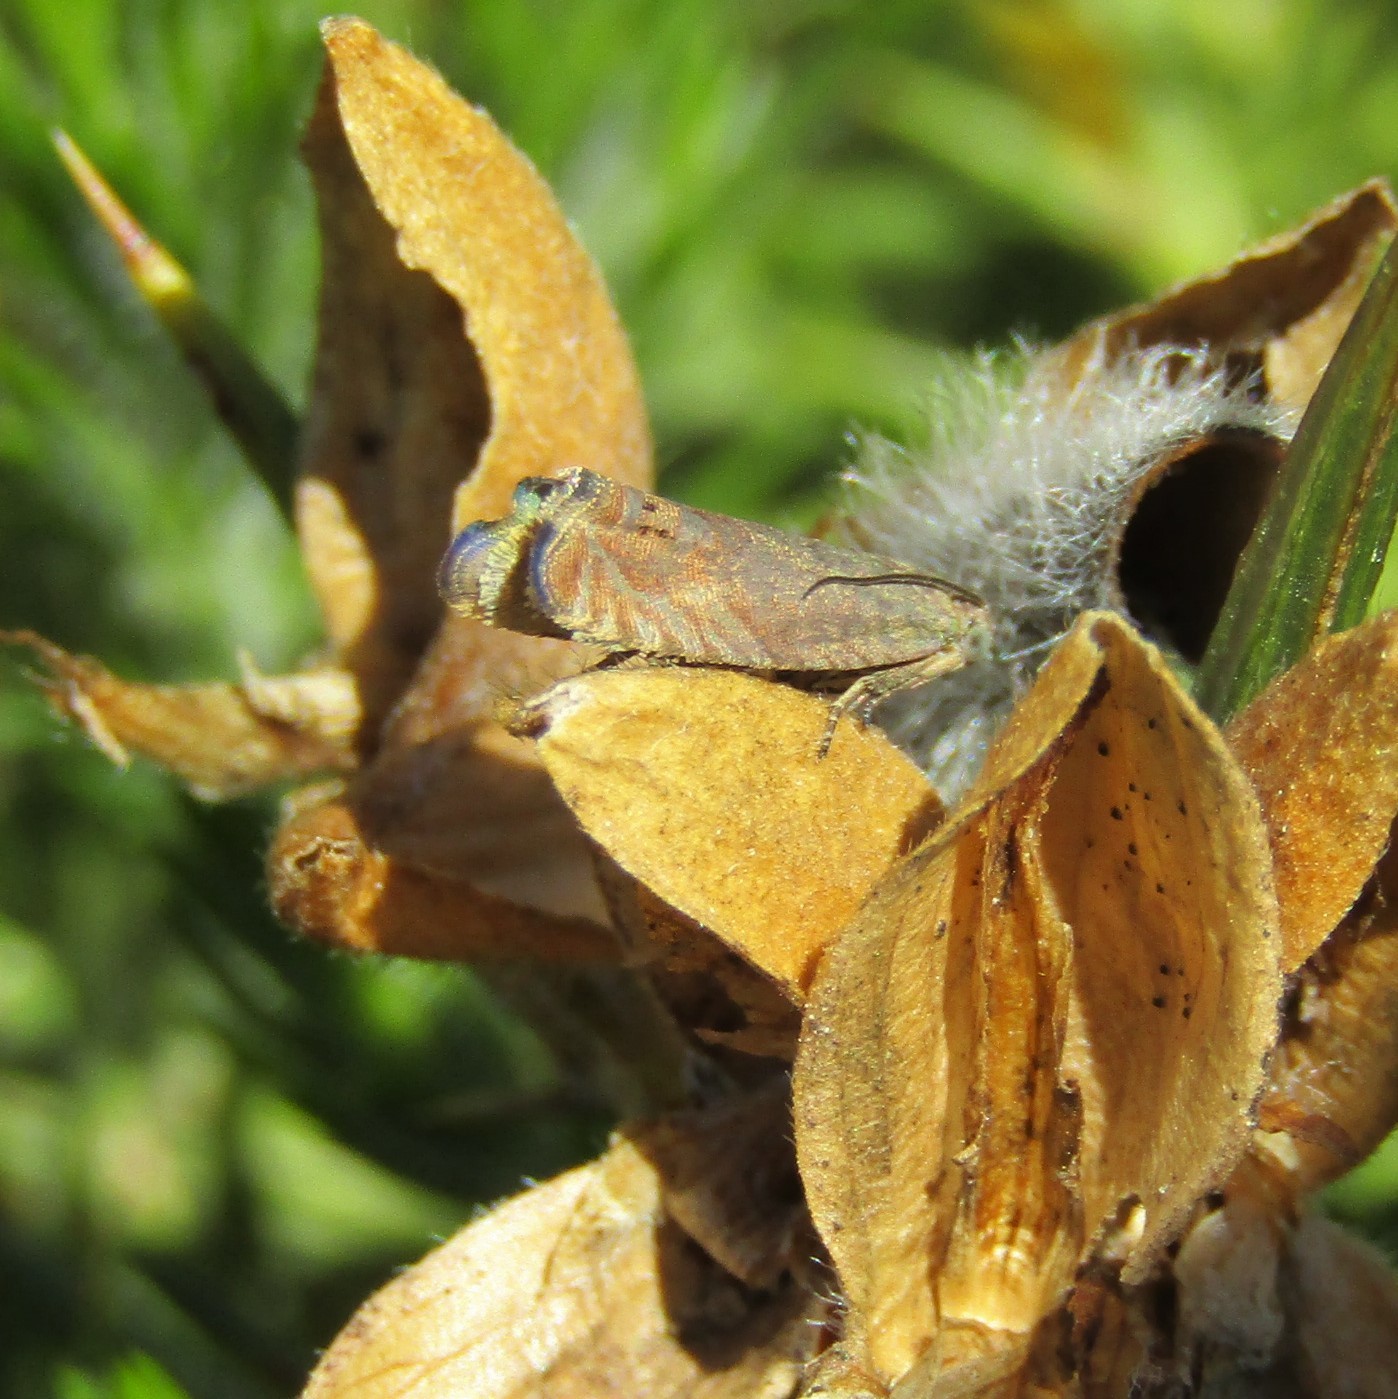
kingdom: Animalia
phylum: Arthropoda
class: Insecta
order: Lepidoptera
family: Tortricidae
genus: Cydia
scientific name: Cydia succedana
